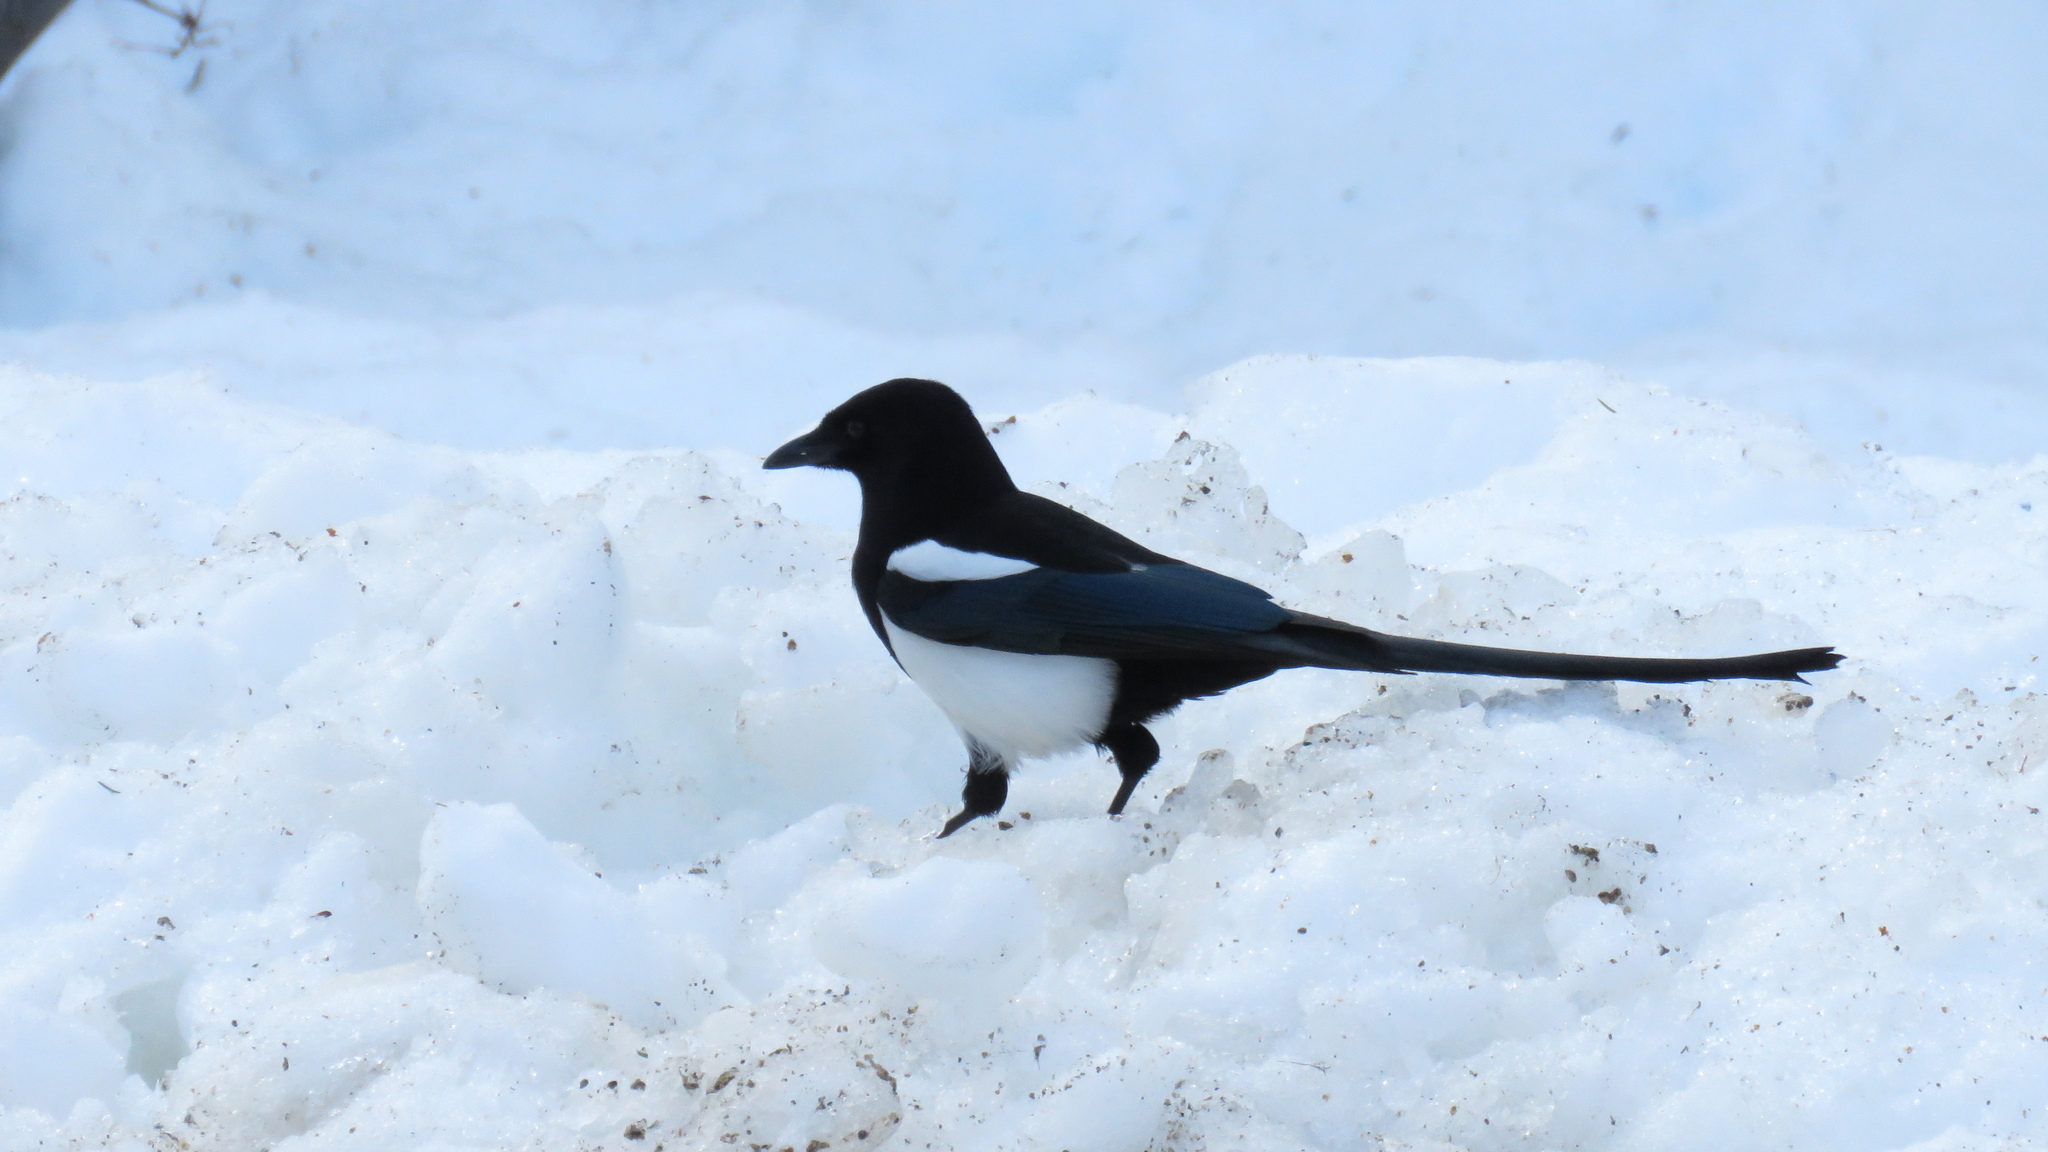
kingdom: Animalia
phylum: Chordata
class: Aves
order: Passeriformes
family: Corvidae
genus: Pica
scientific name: Pica hudsonia
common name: Black-billed magpie
